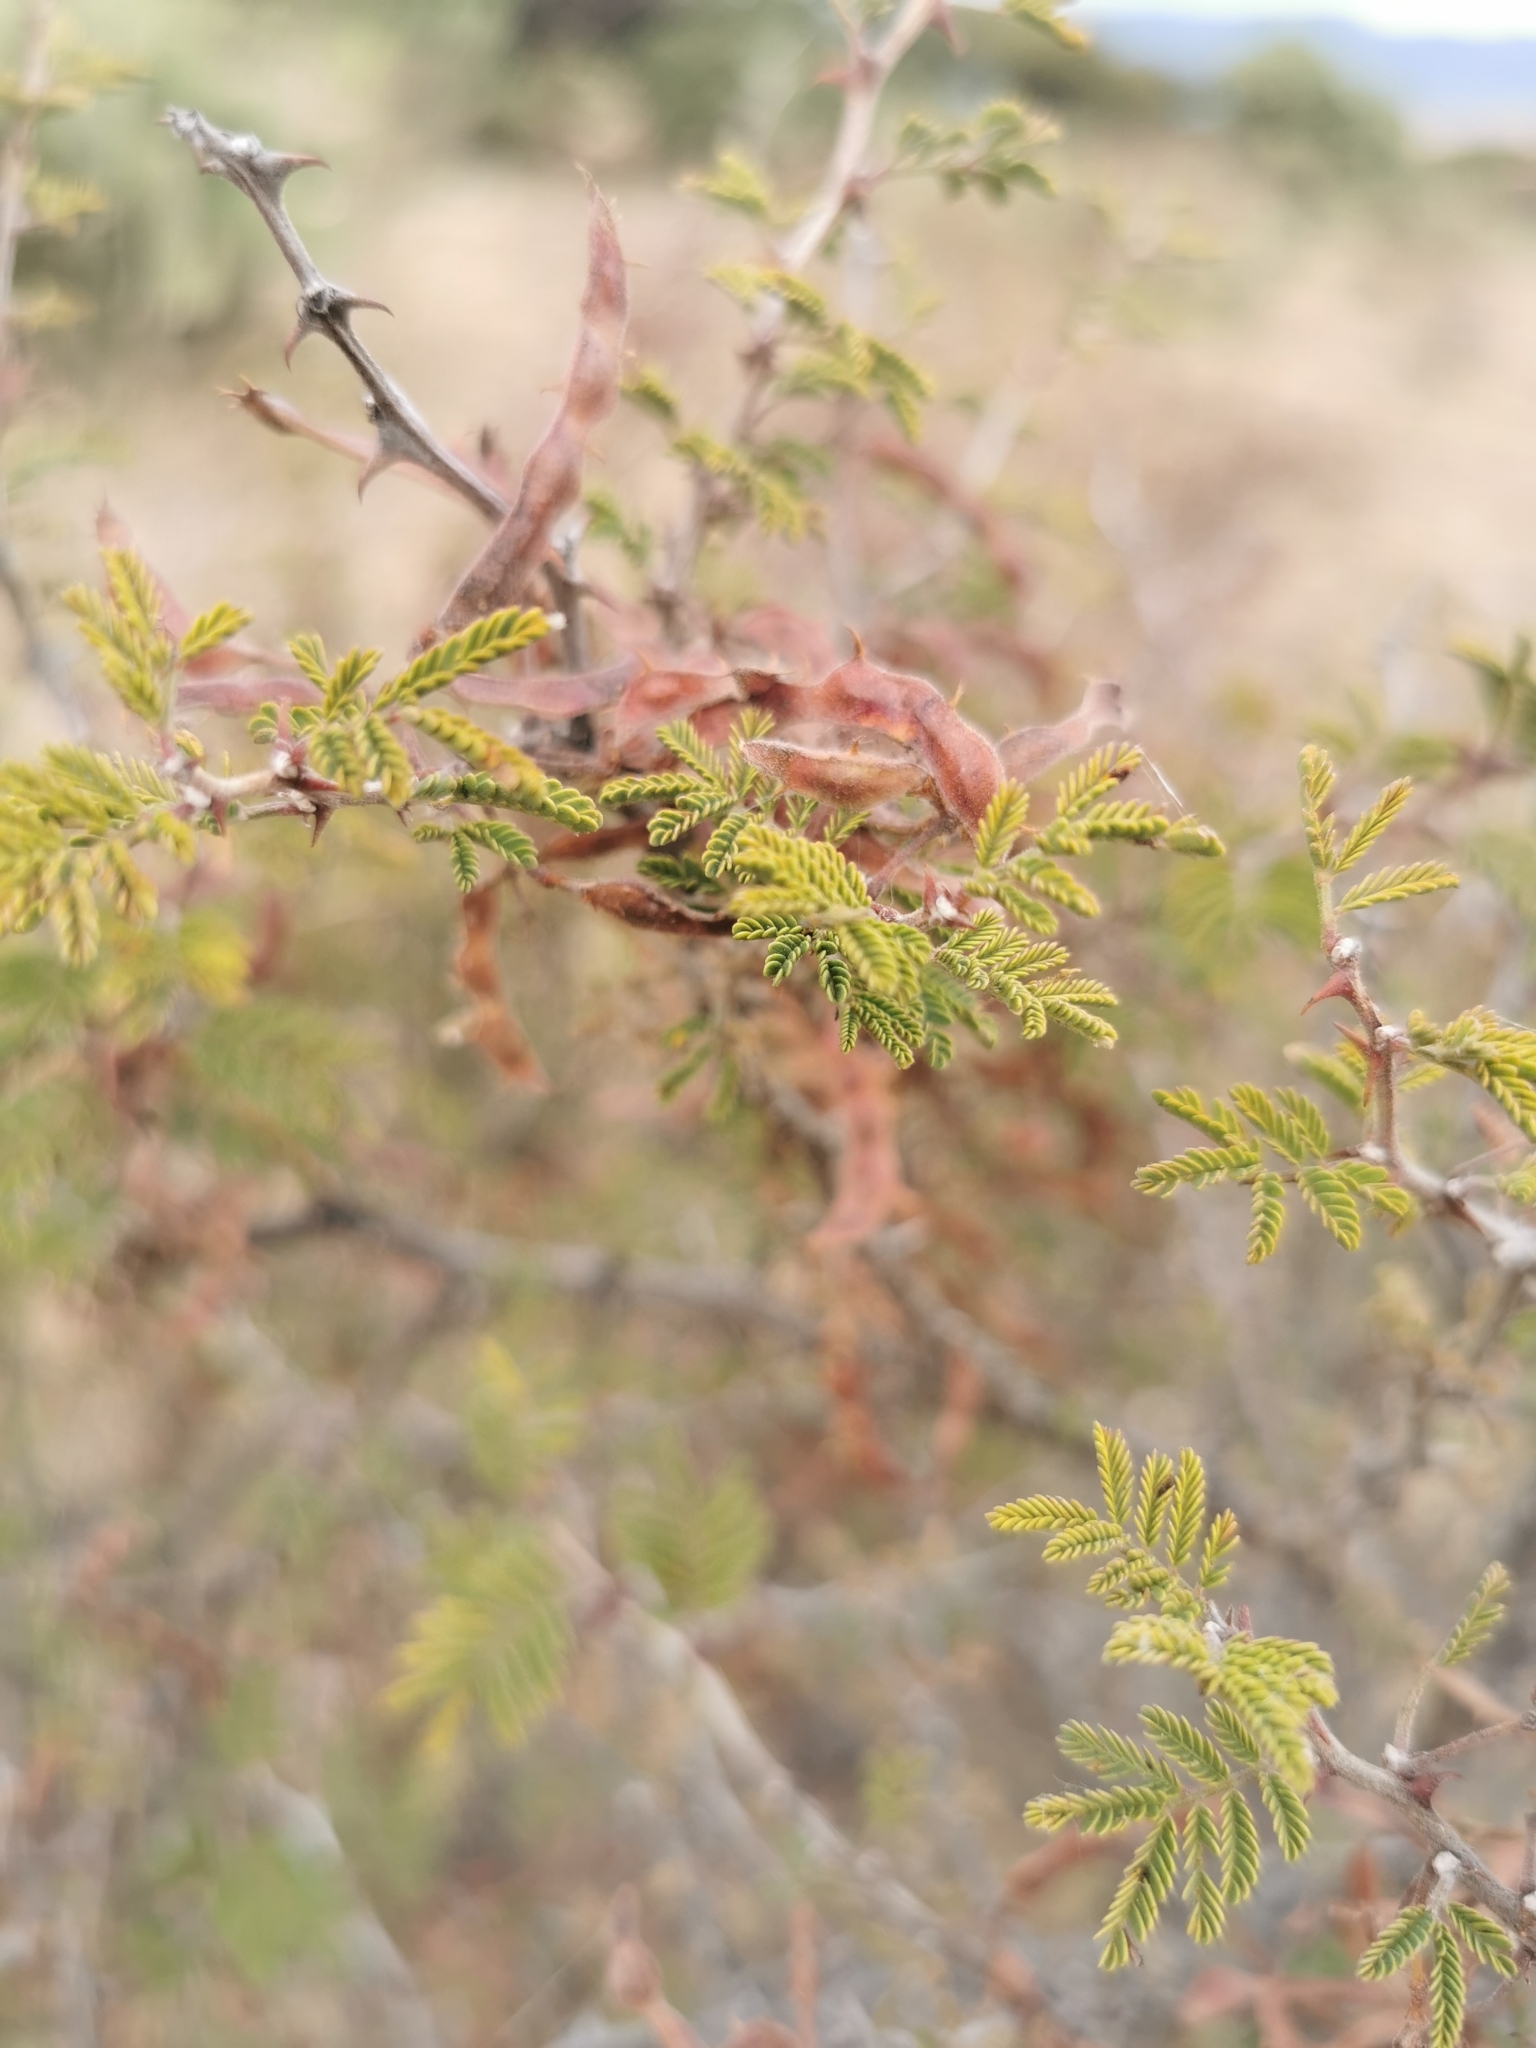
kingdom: Plantae
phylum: Tracheophyta
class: Magnoliopsida
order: Caryophyllales
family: Cactaceae
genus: Opuntia
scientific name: Opuntia leucotricha
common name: Arborescent pricklypear
